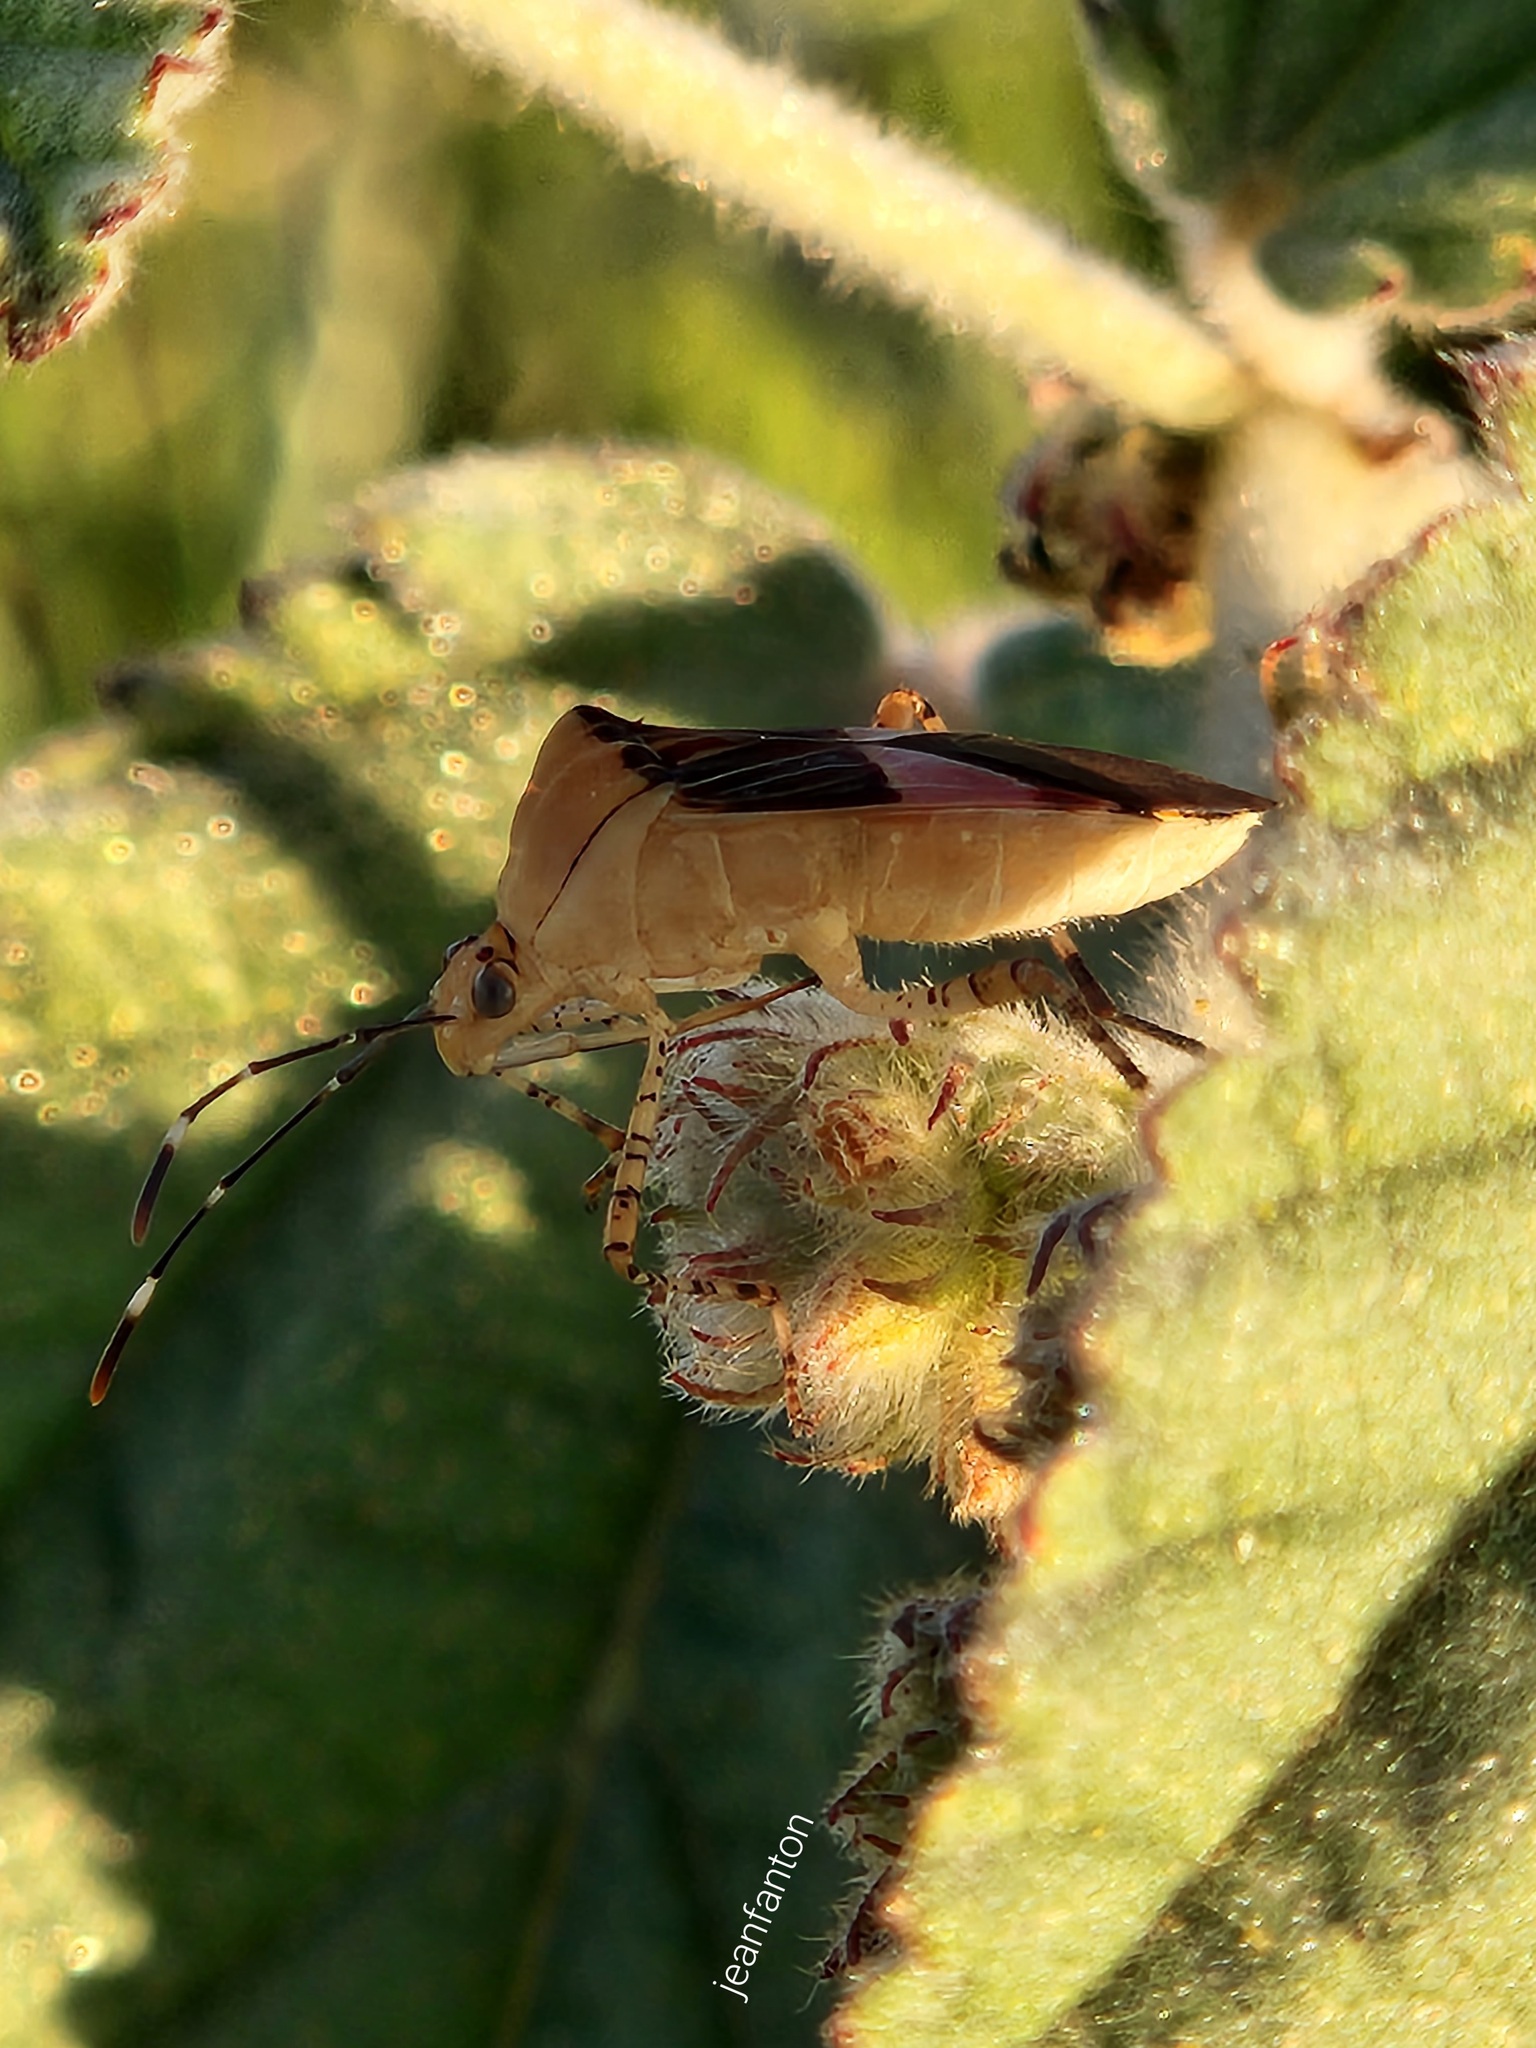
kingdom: Animalia
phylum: Arthropoda
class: Insecta
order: Hemiptera
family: Coreidae
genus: Hypselonotus
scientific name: Hypselonotus fulvus
